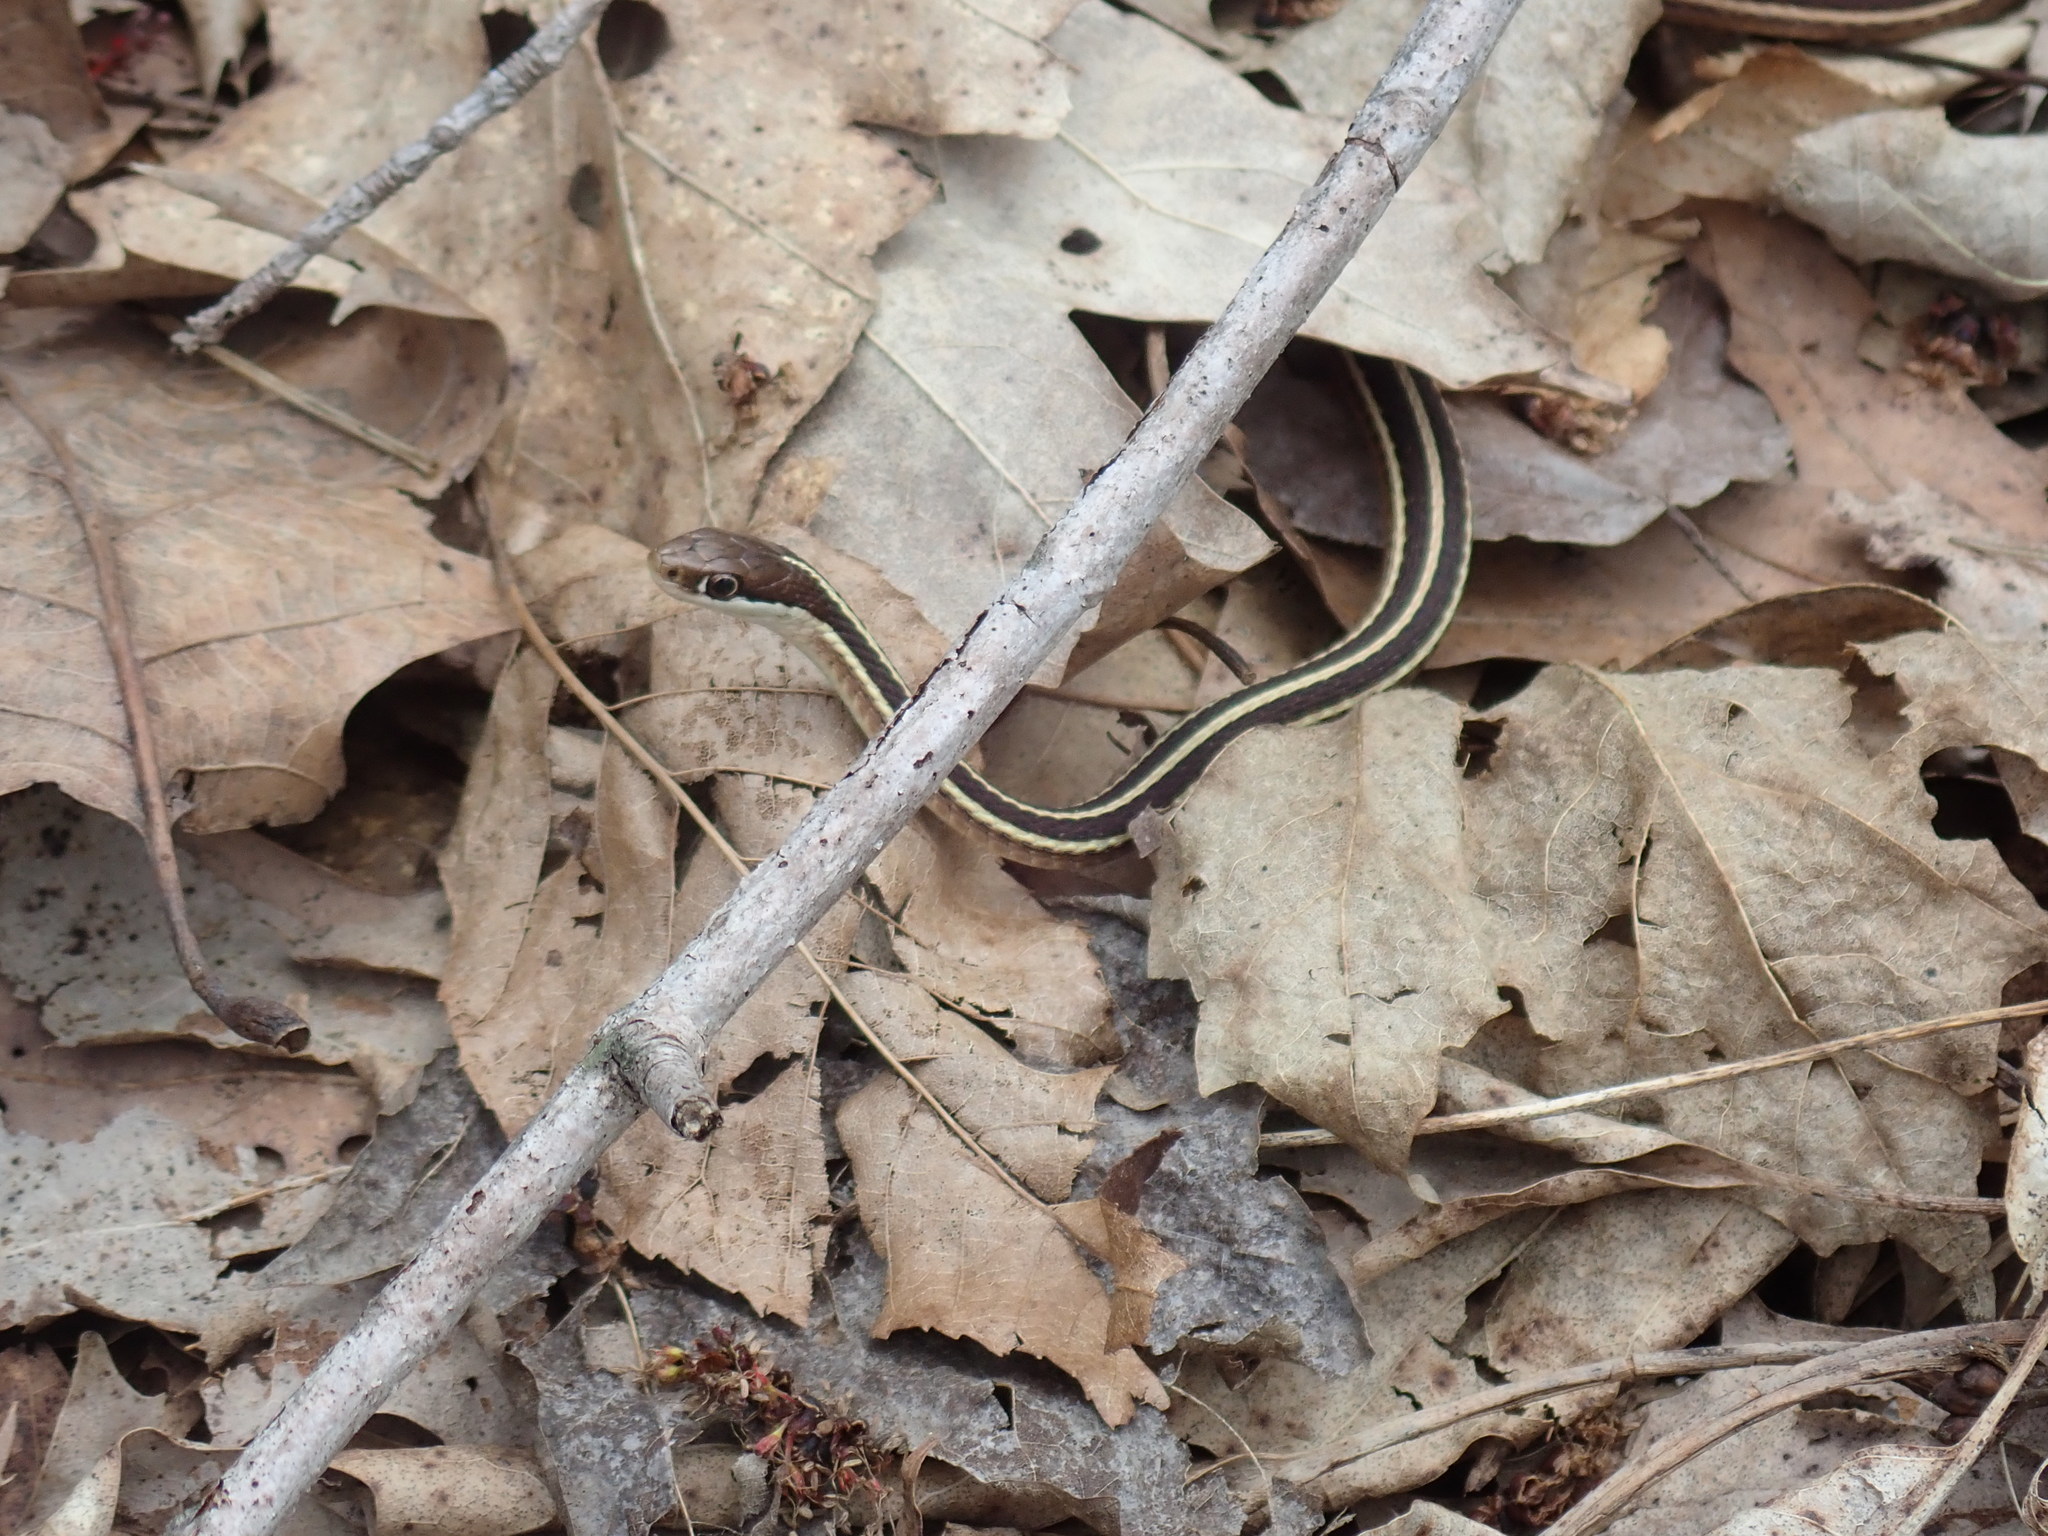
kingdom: Animalia
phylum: Chordata
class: Squamata
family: Colubridae
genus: Thamnophis
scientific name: Thamnophis saurita
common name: Eastern ribbonsnake
